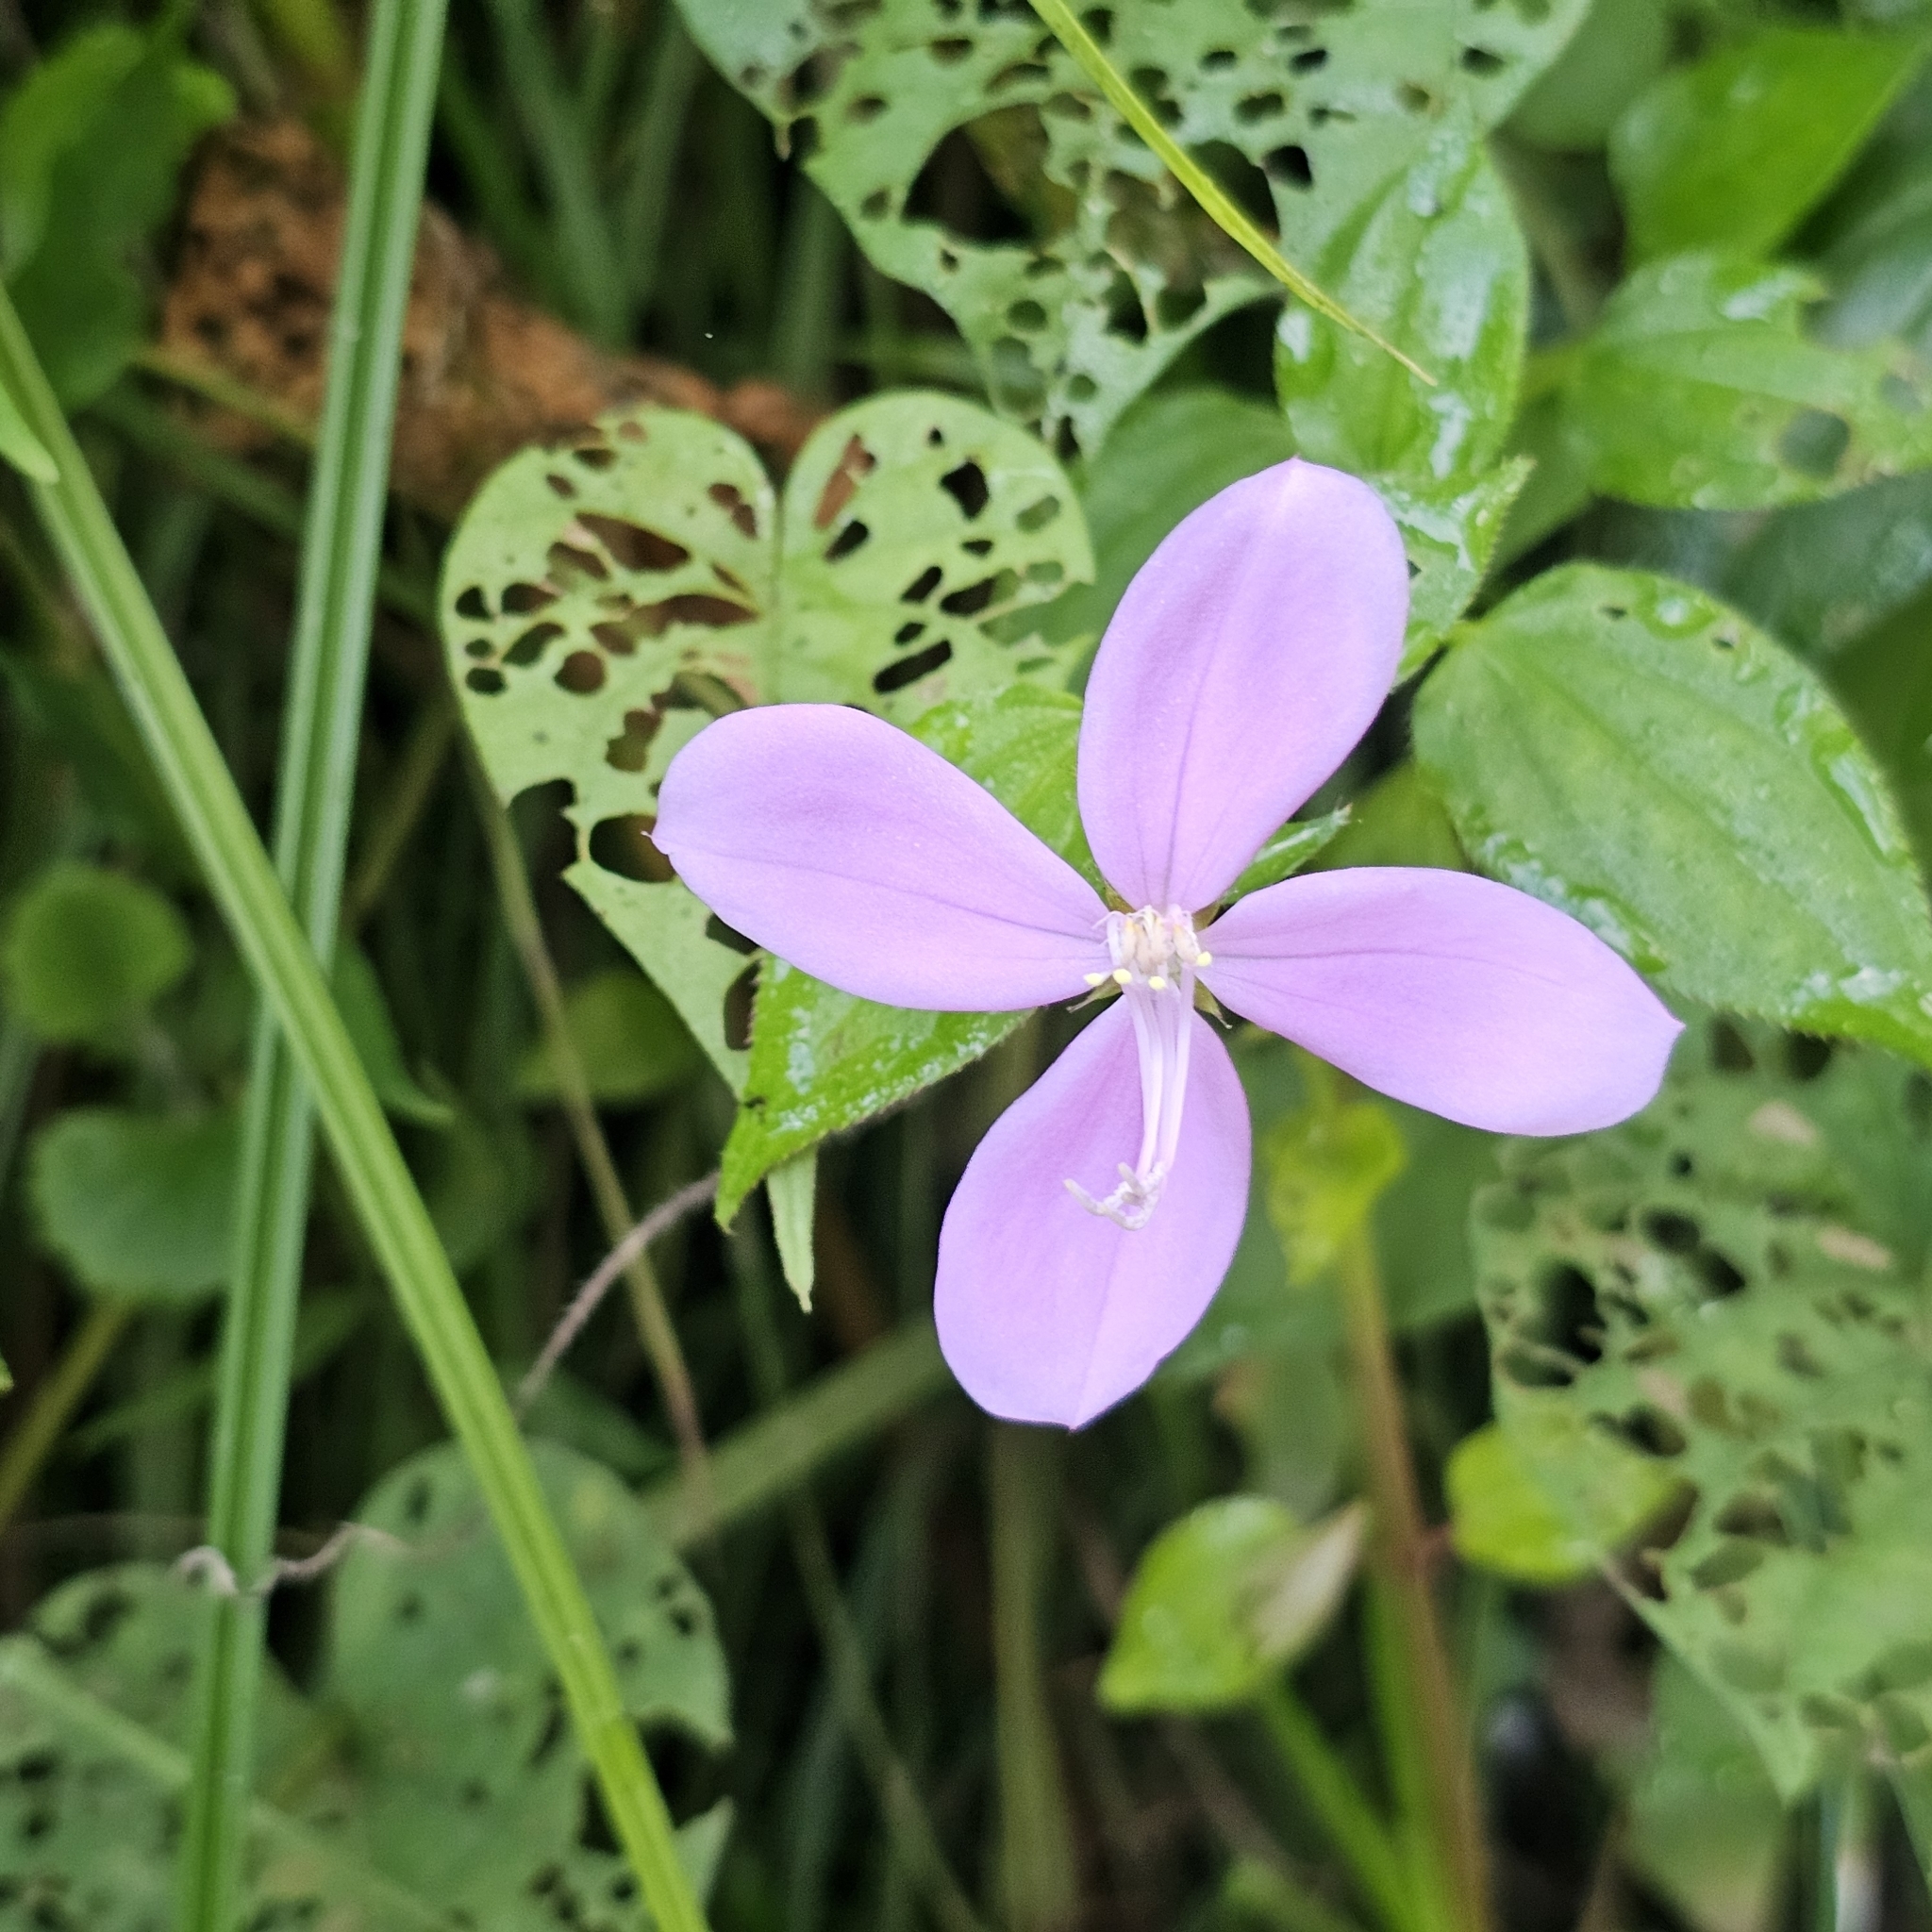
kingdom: Plantae
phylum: Tracheophyta
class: Magnoliopsida
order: Myrtales
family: Melastomataceae
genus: Arthrostemma
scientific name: Arthrostemma ciliatum
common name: Everblooming eavender
